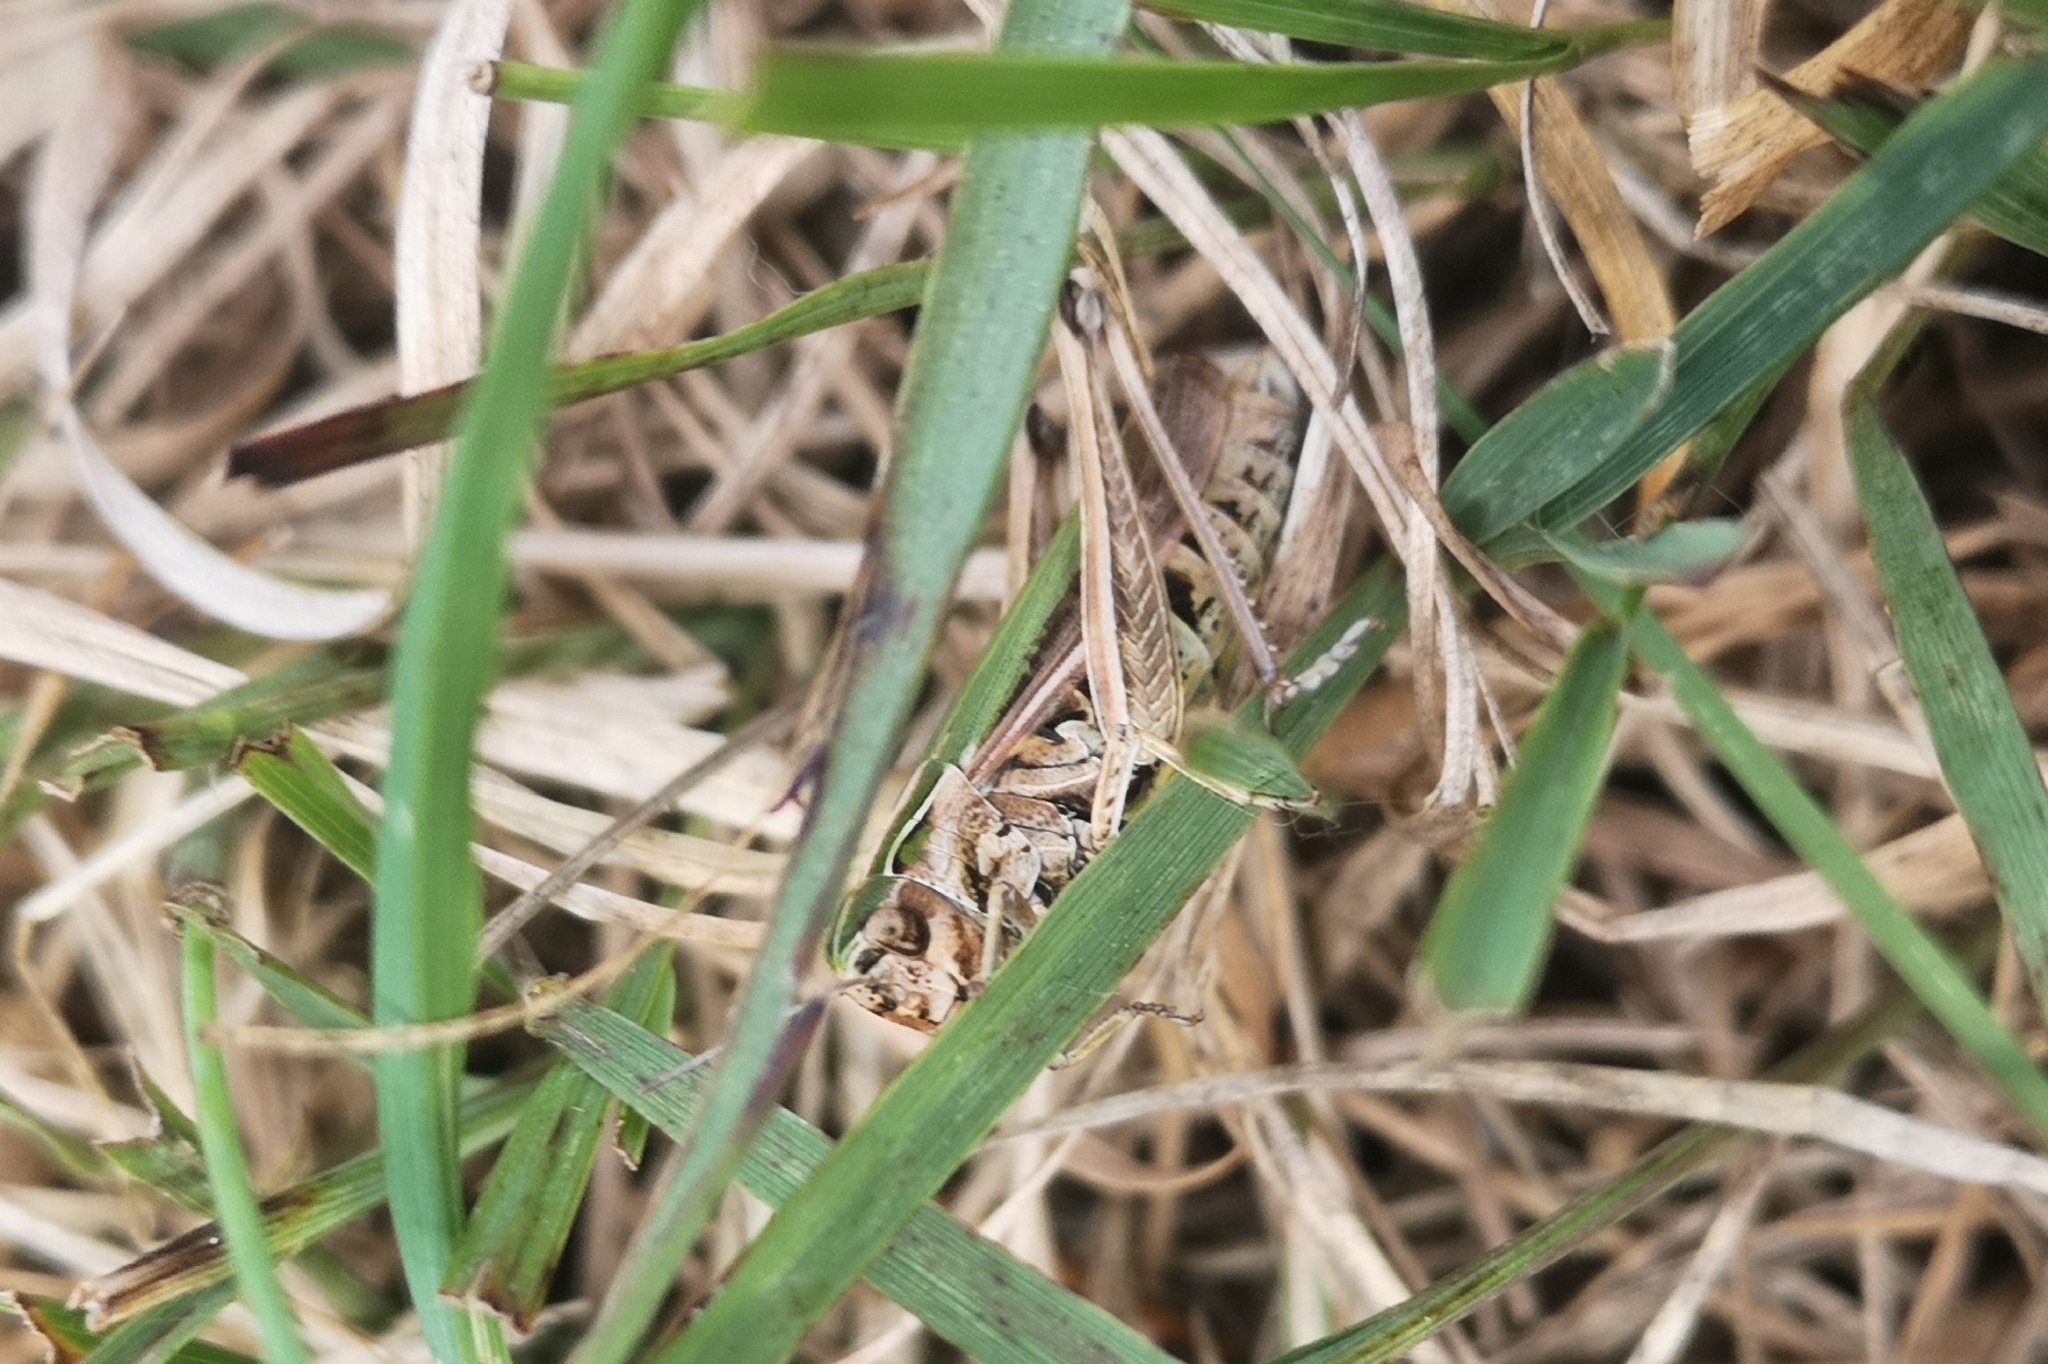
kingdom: Animalia
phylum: Arthropoda
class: Insecta
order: Orthoptera
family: Acrididae
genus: Omocestus
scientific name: Omocestus viridulus
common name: Common green grasshopper
